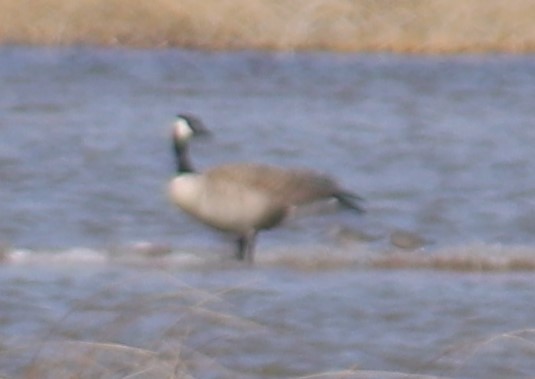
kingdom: Animalia
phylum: Chordata
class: Aves
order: Anseriformes
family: Anatidae
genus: Branta
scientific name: Branta canadensis
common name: Canada goose
